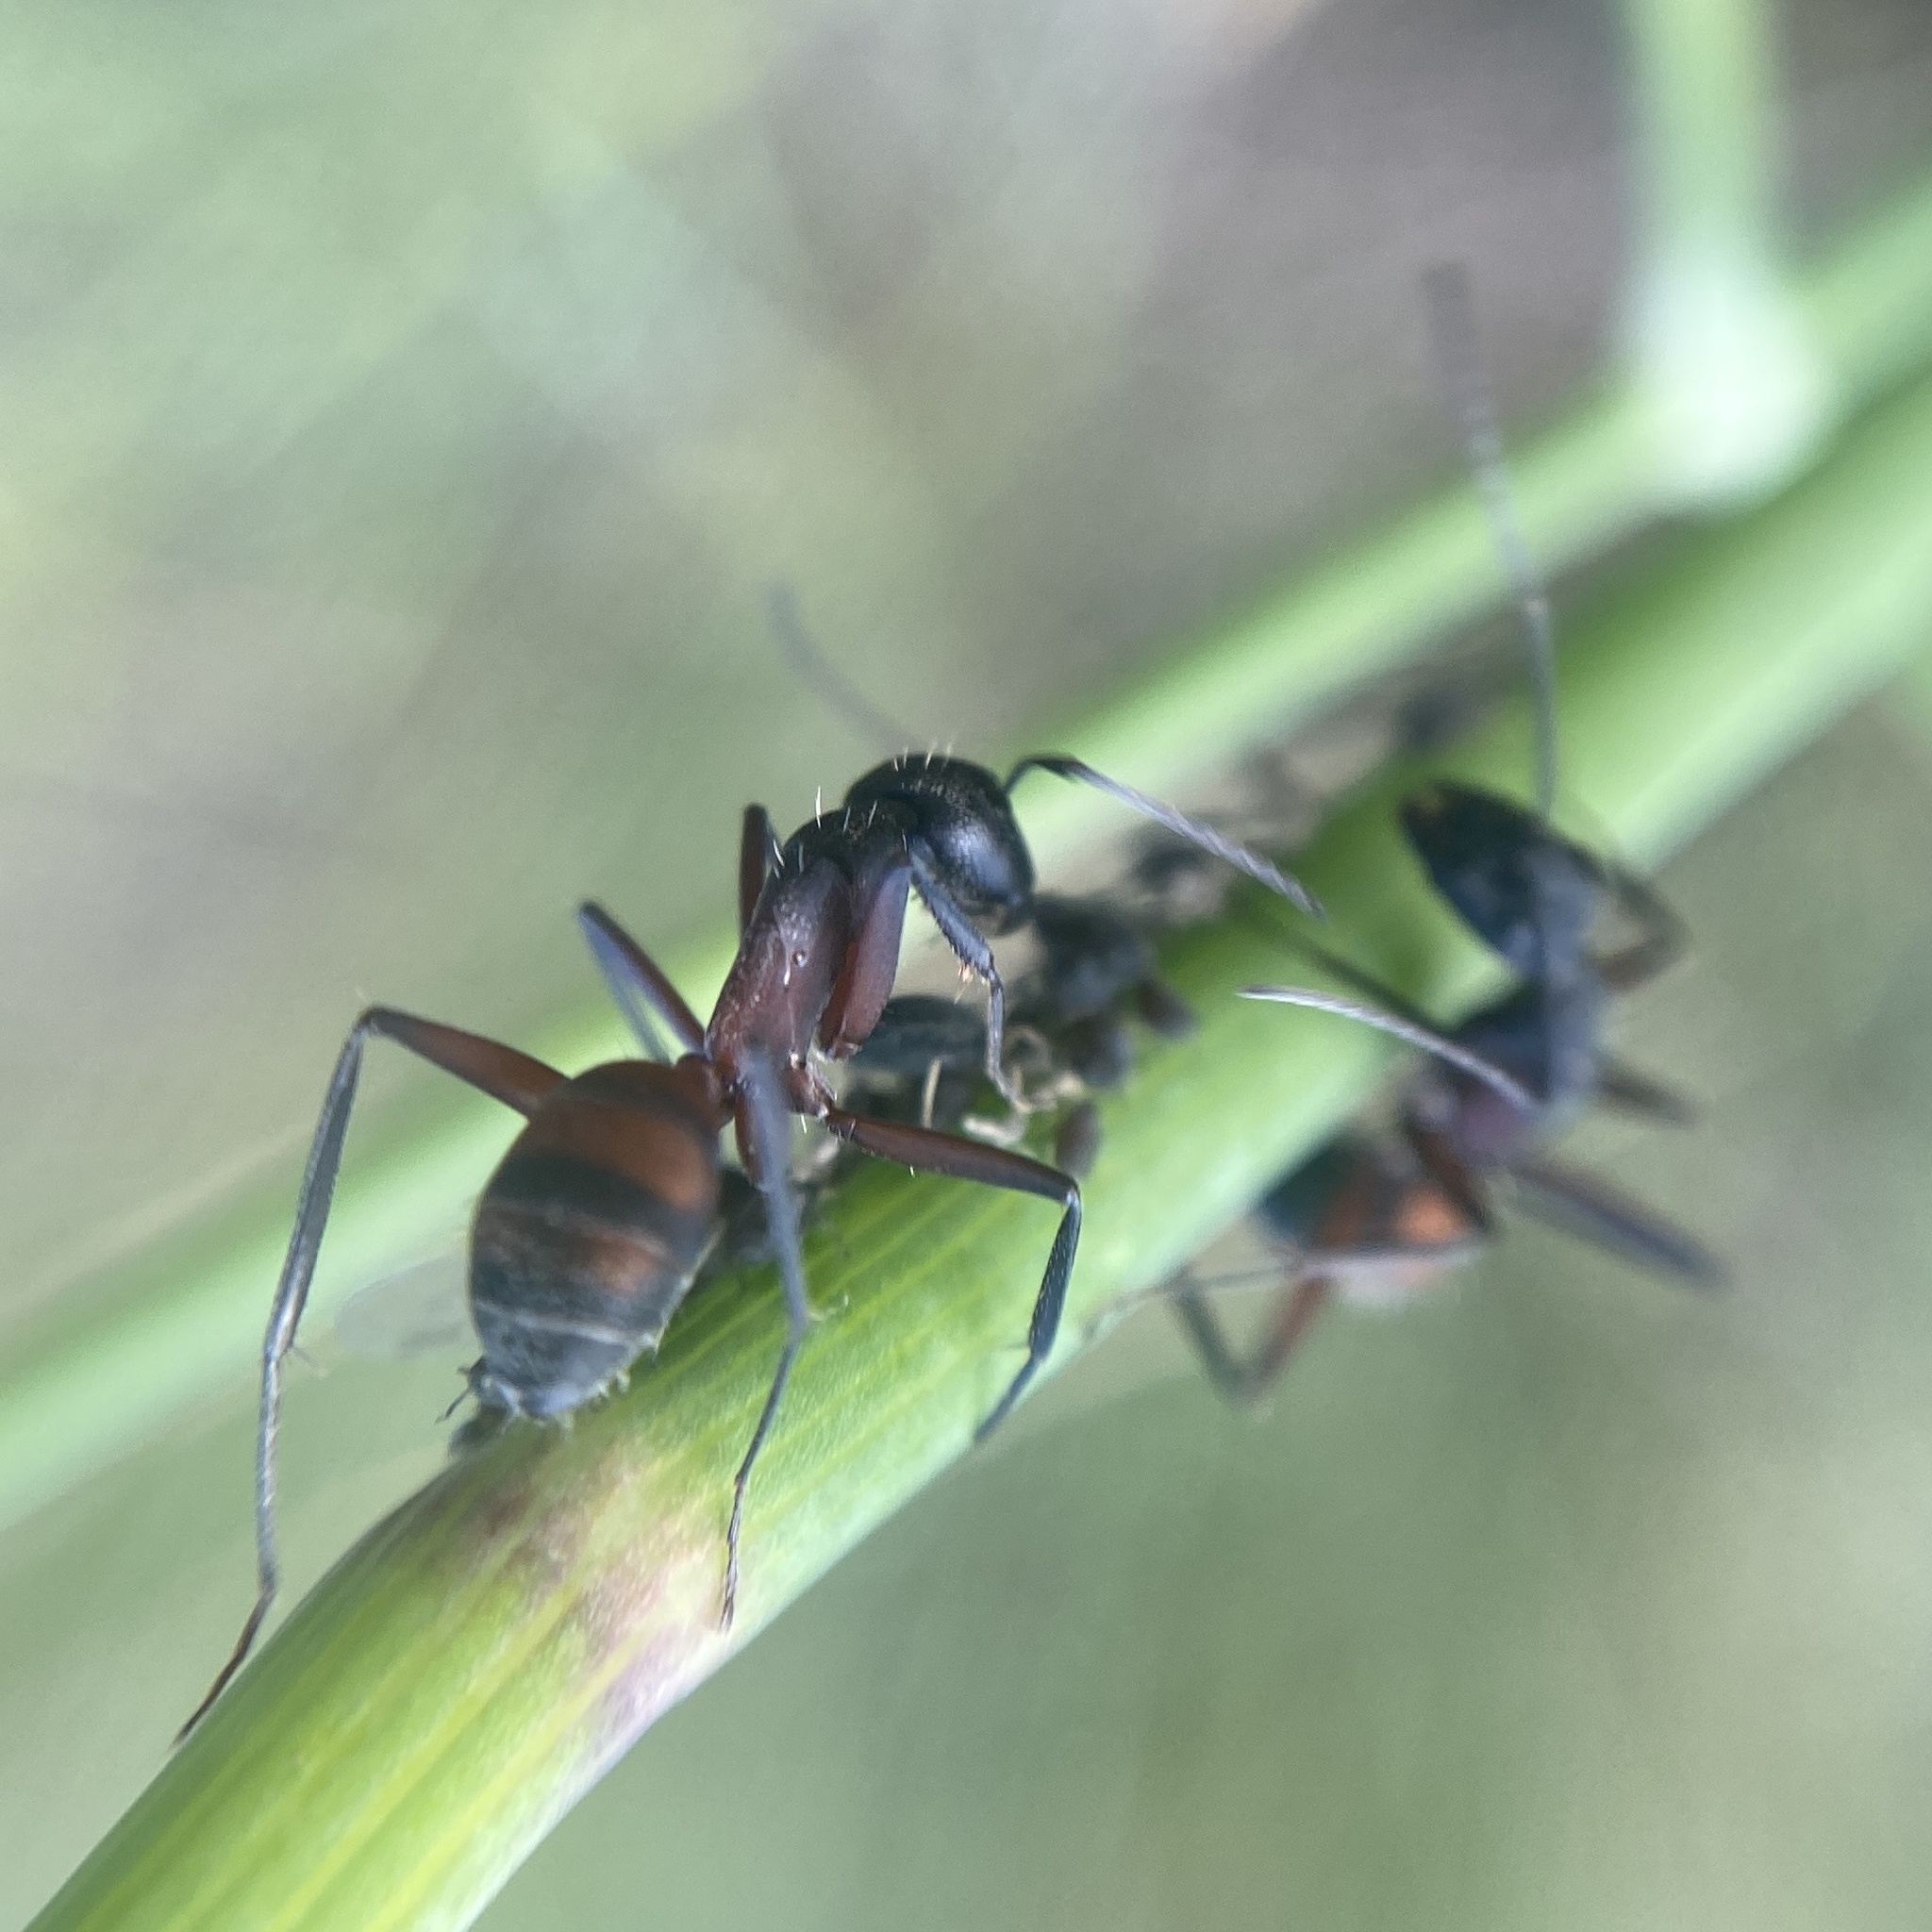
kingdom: Animalia
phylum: Arthropoda
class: Insecta
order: Hymenoptera
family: Formicidae
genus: Camponotus
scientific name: Camponotus cruentatus
